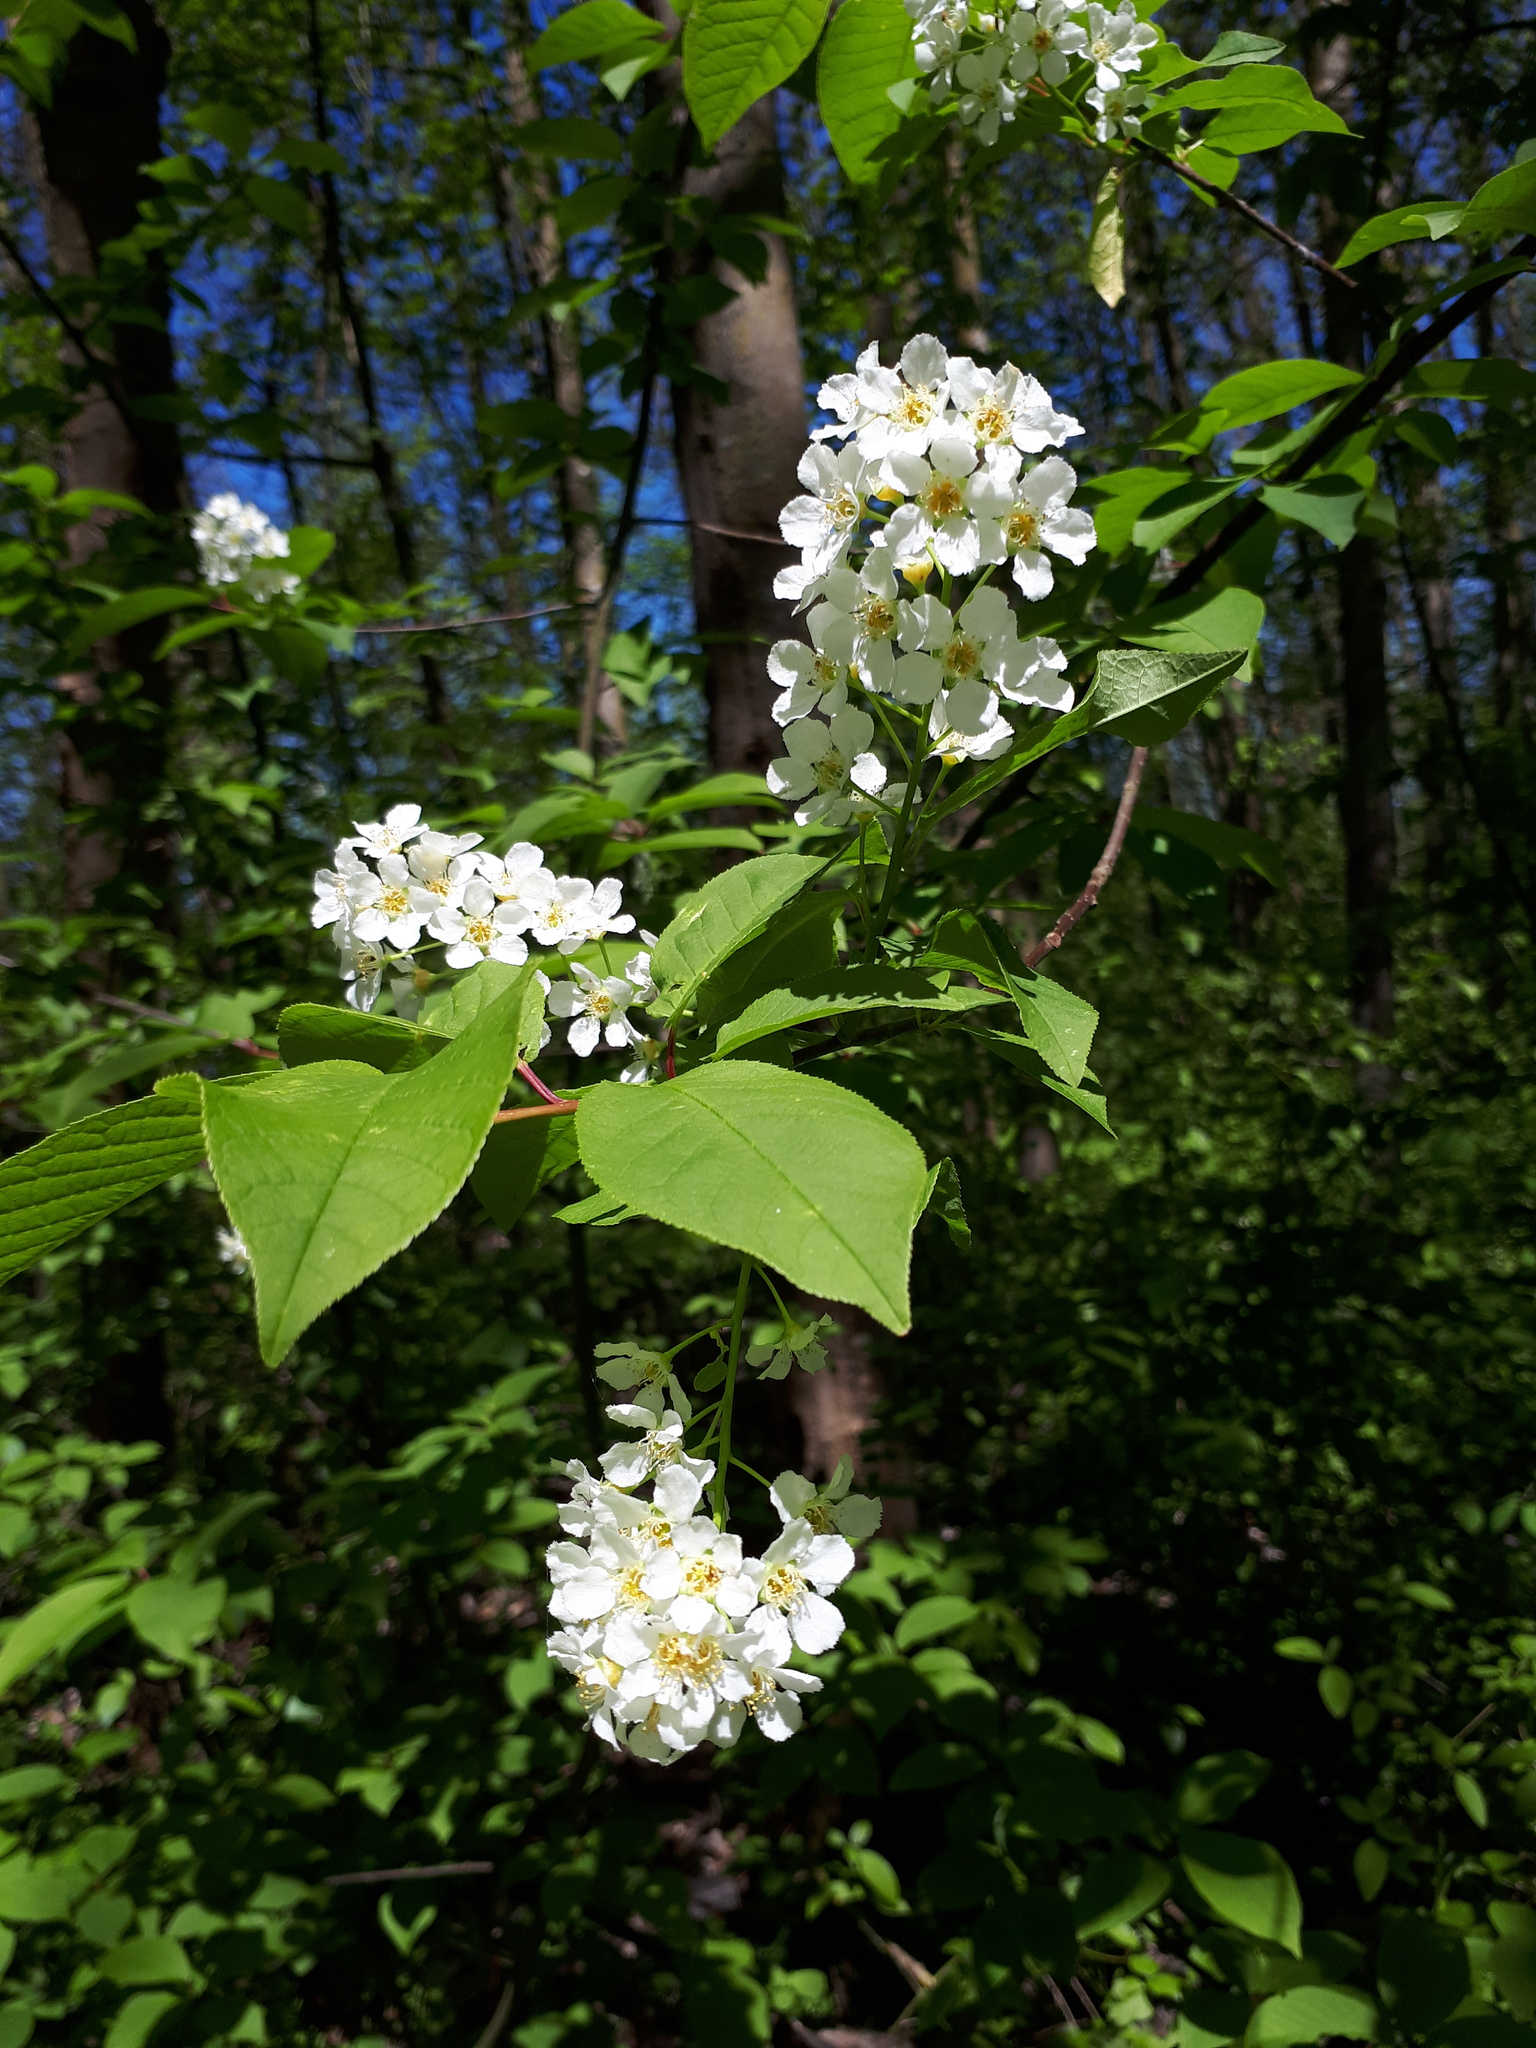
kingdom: Plantae
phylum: Tracheophyta
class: Magnoliopsida
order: Rosales
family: Rosaceae
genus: Prunus
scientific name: Prunus padus
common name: Bird cherry
